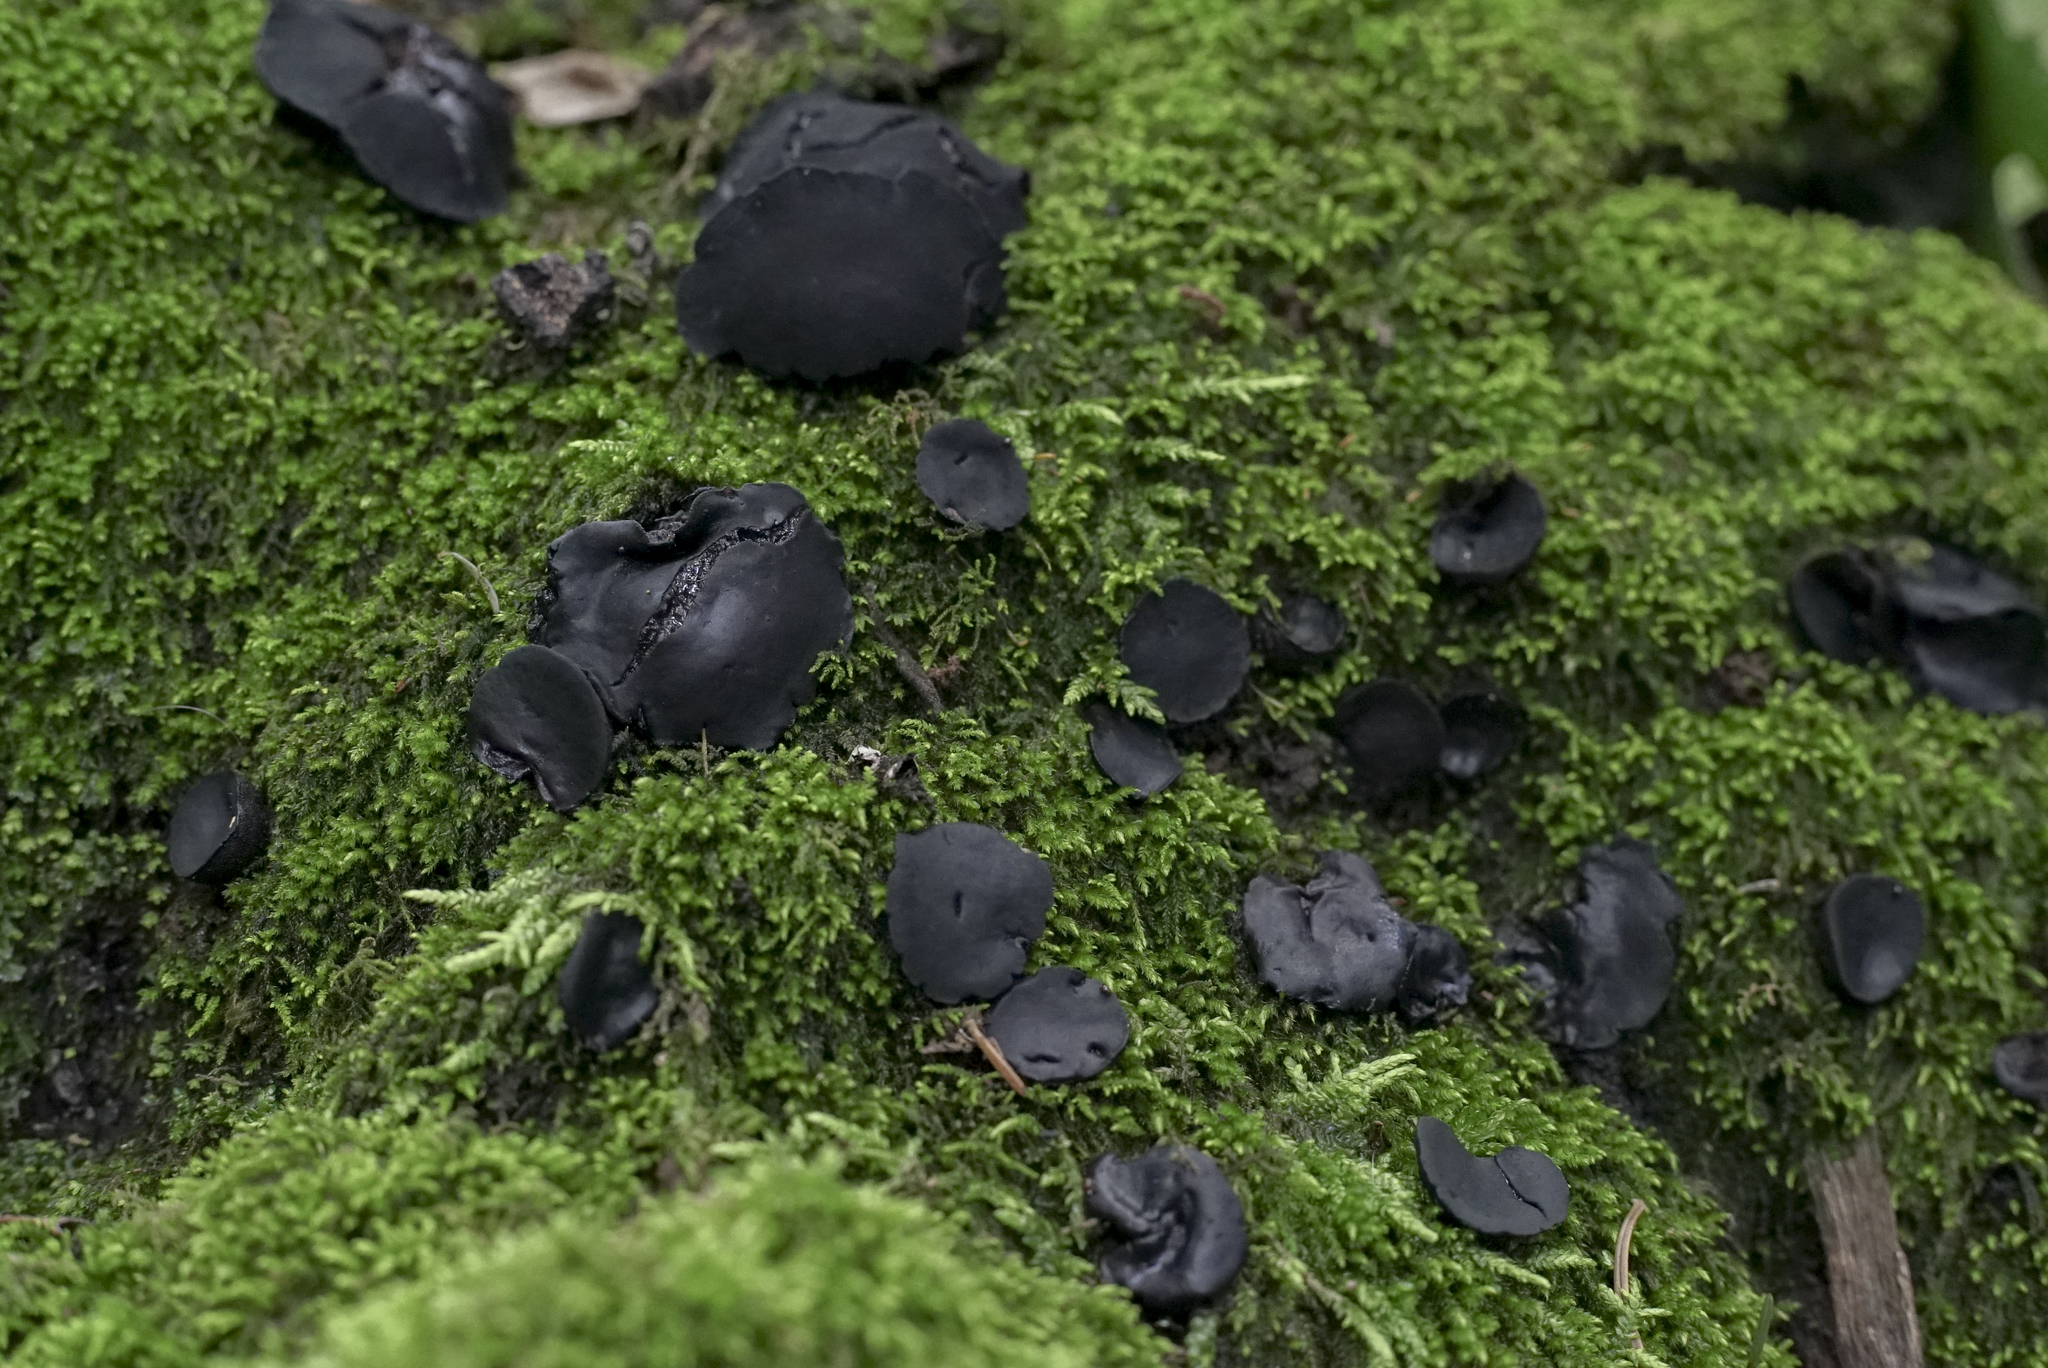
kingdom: Fungi
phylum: Ascomycota
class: Leotiomycetes
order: Phacidiales
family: Phacidiaceae
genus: Bulgaria
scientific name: Bulgaria inquinans
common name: Black bulgar
